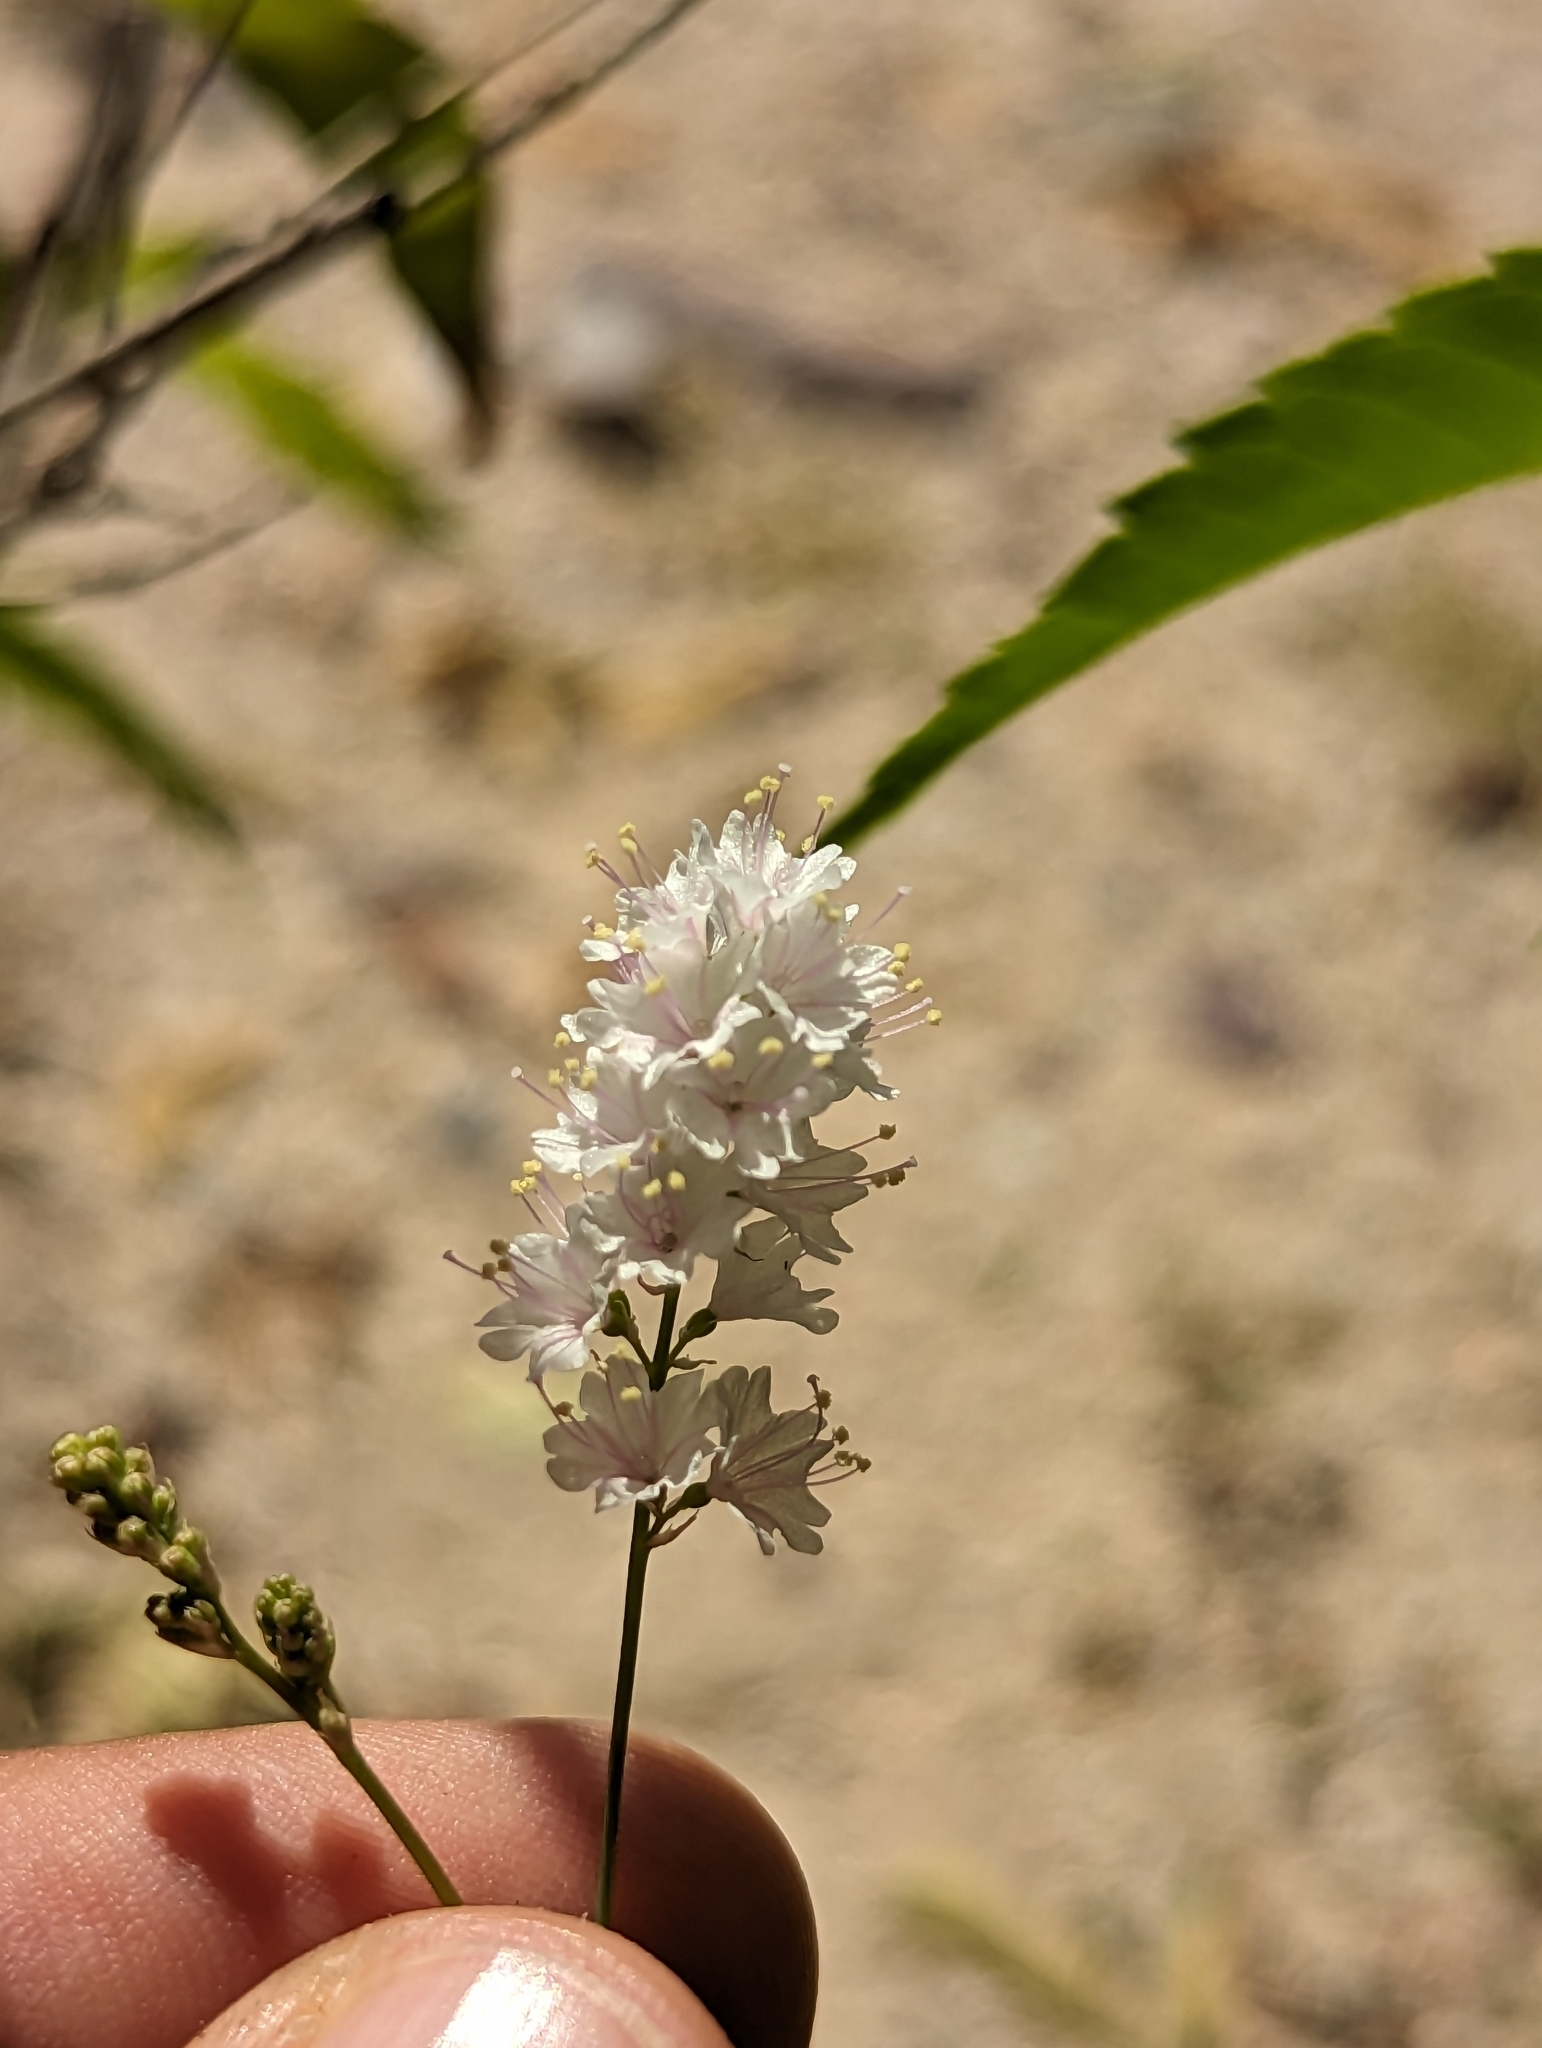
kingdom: Plantae
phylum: Tracheophyta
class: Magnoliopsida
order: Caryophyllales
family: Nyctaginaceae
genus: Boerhavia
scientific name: Boerhavia xantii
